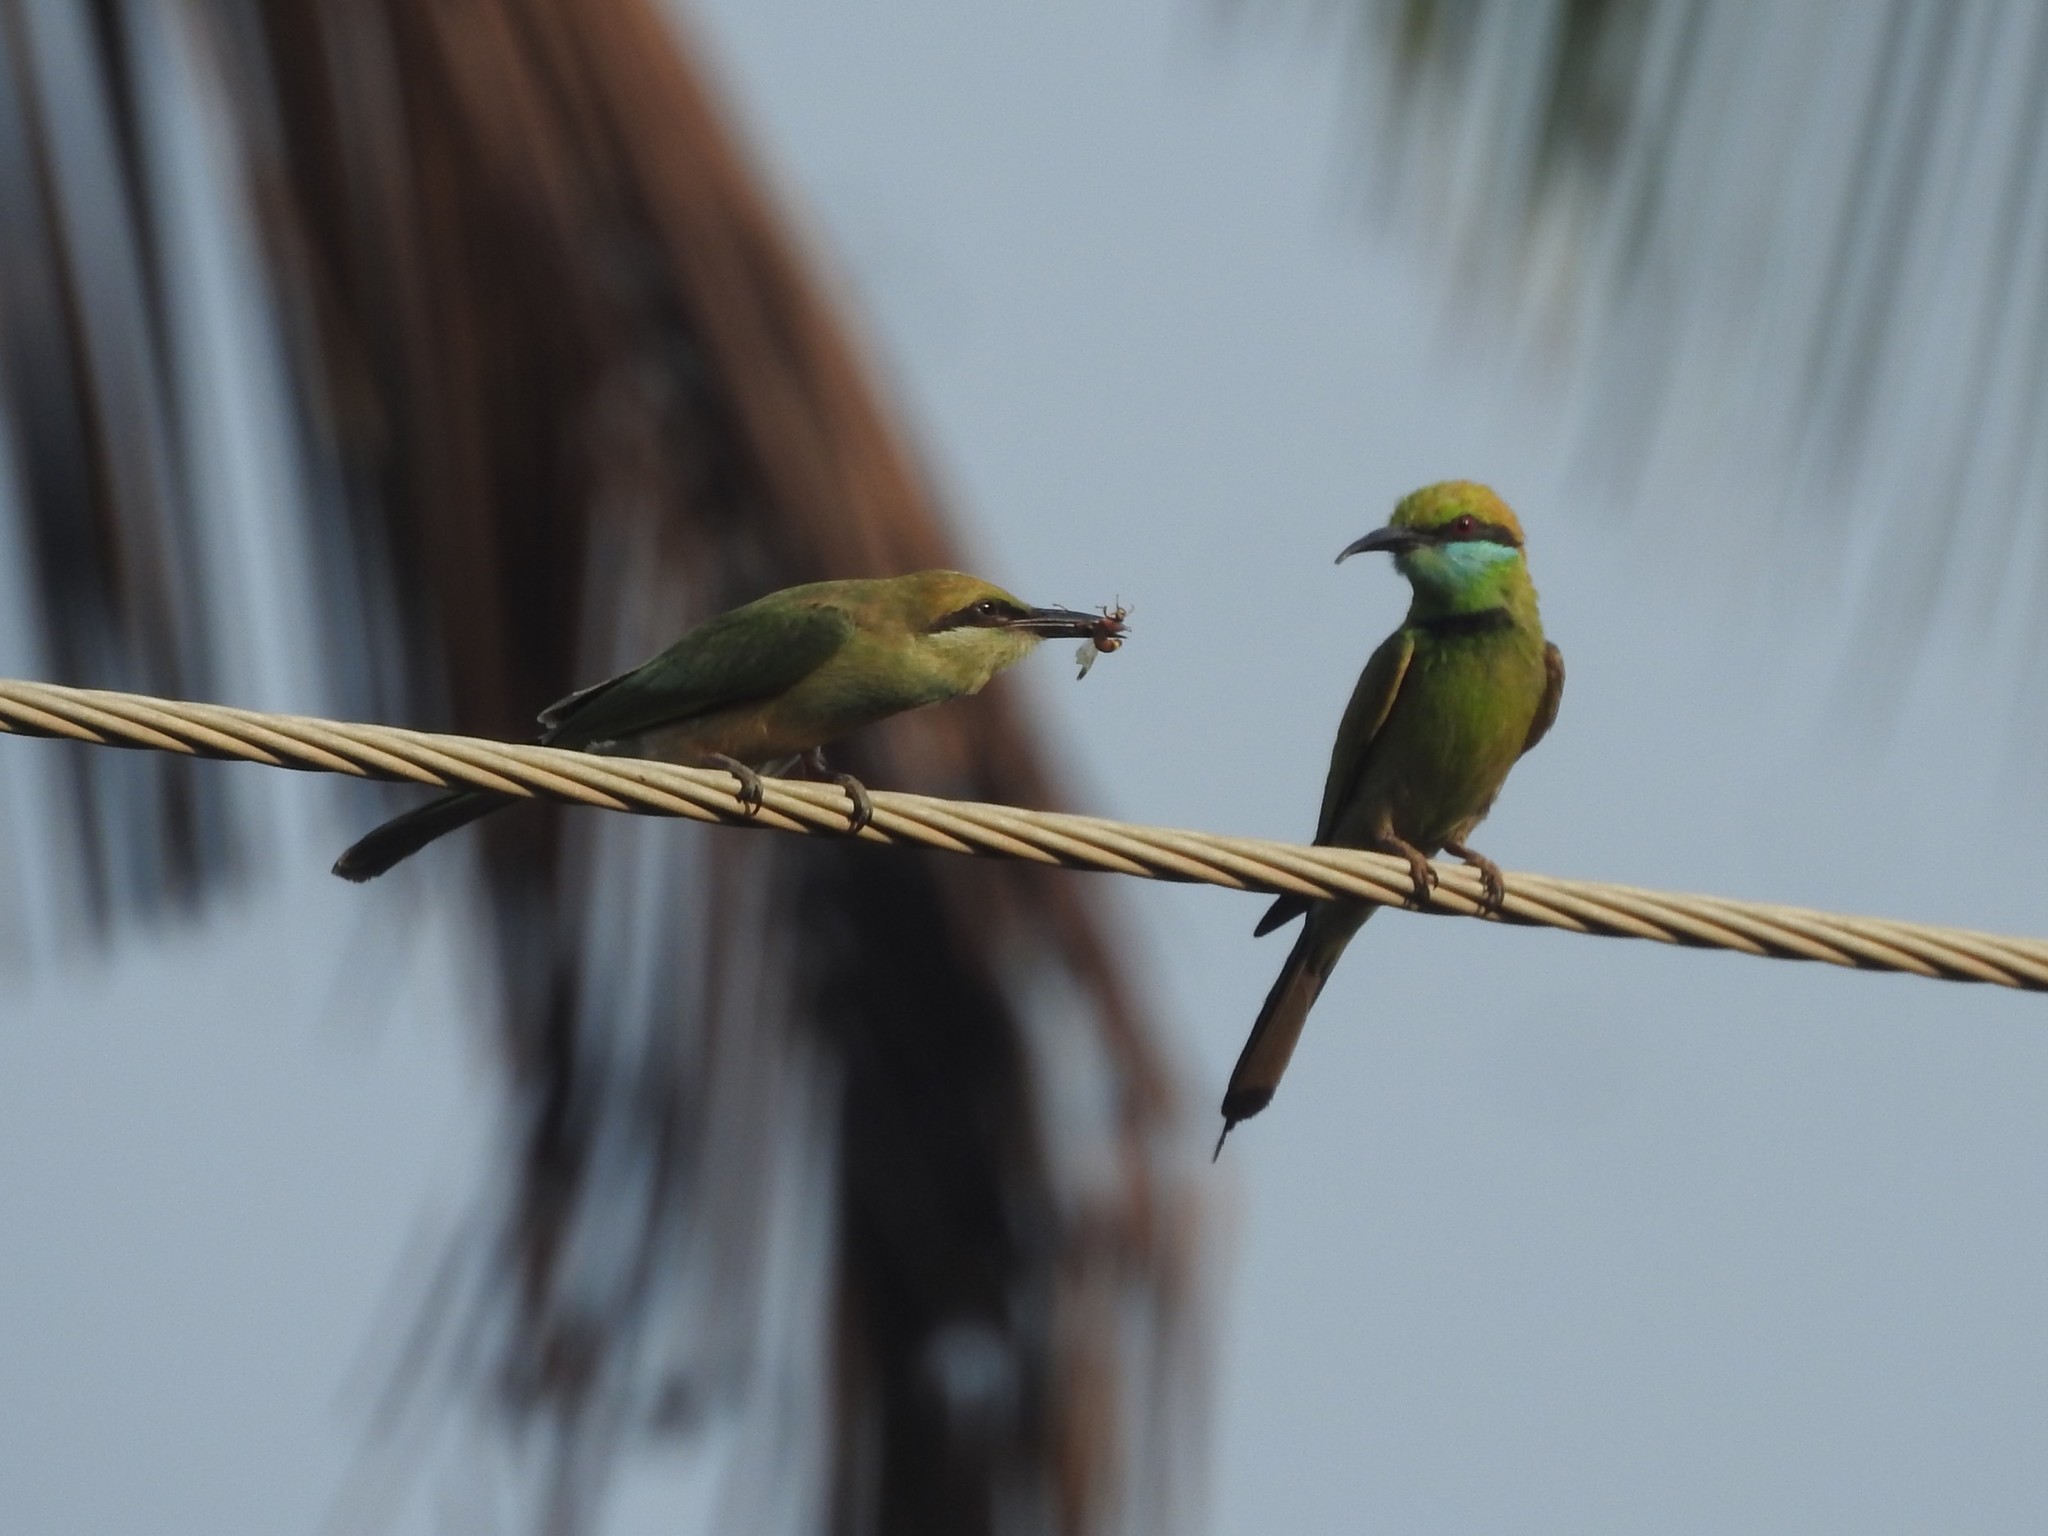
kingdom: Animalia
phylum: Chordata
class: Aves
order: Coraciiformes
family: Meropidae
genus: Merops
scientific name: Merops orientalis
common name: Green bee-eater
